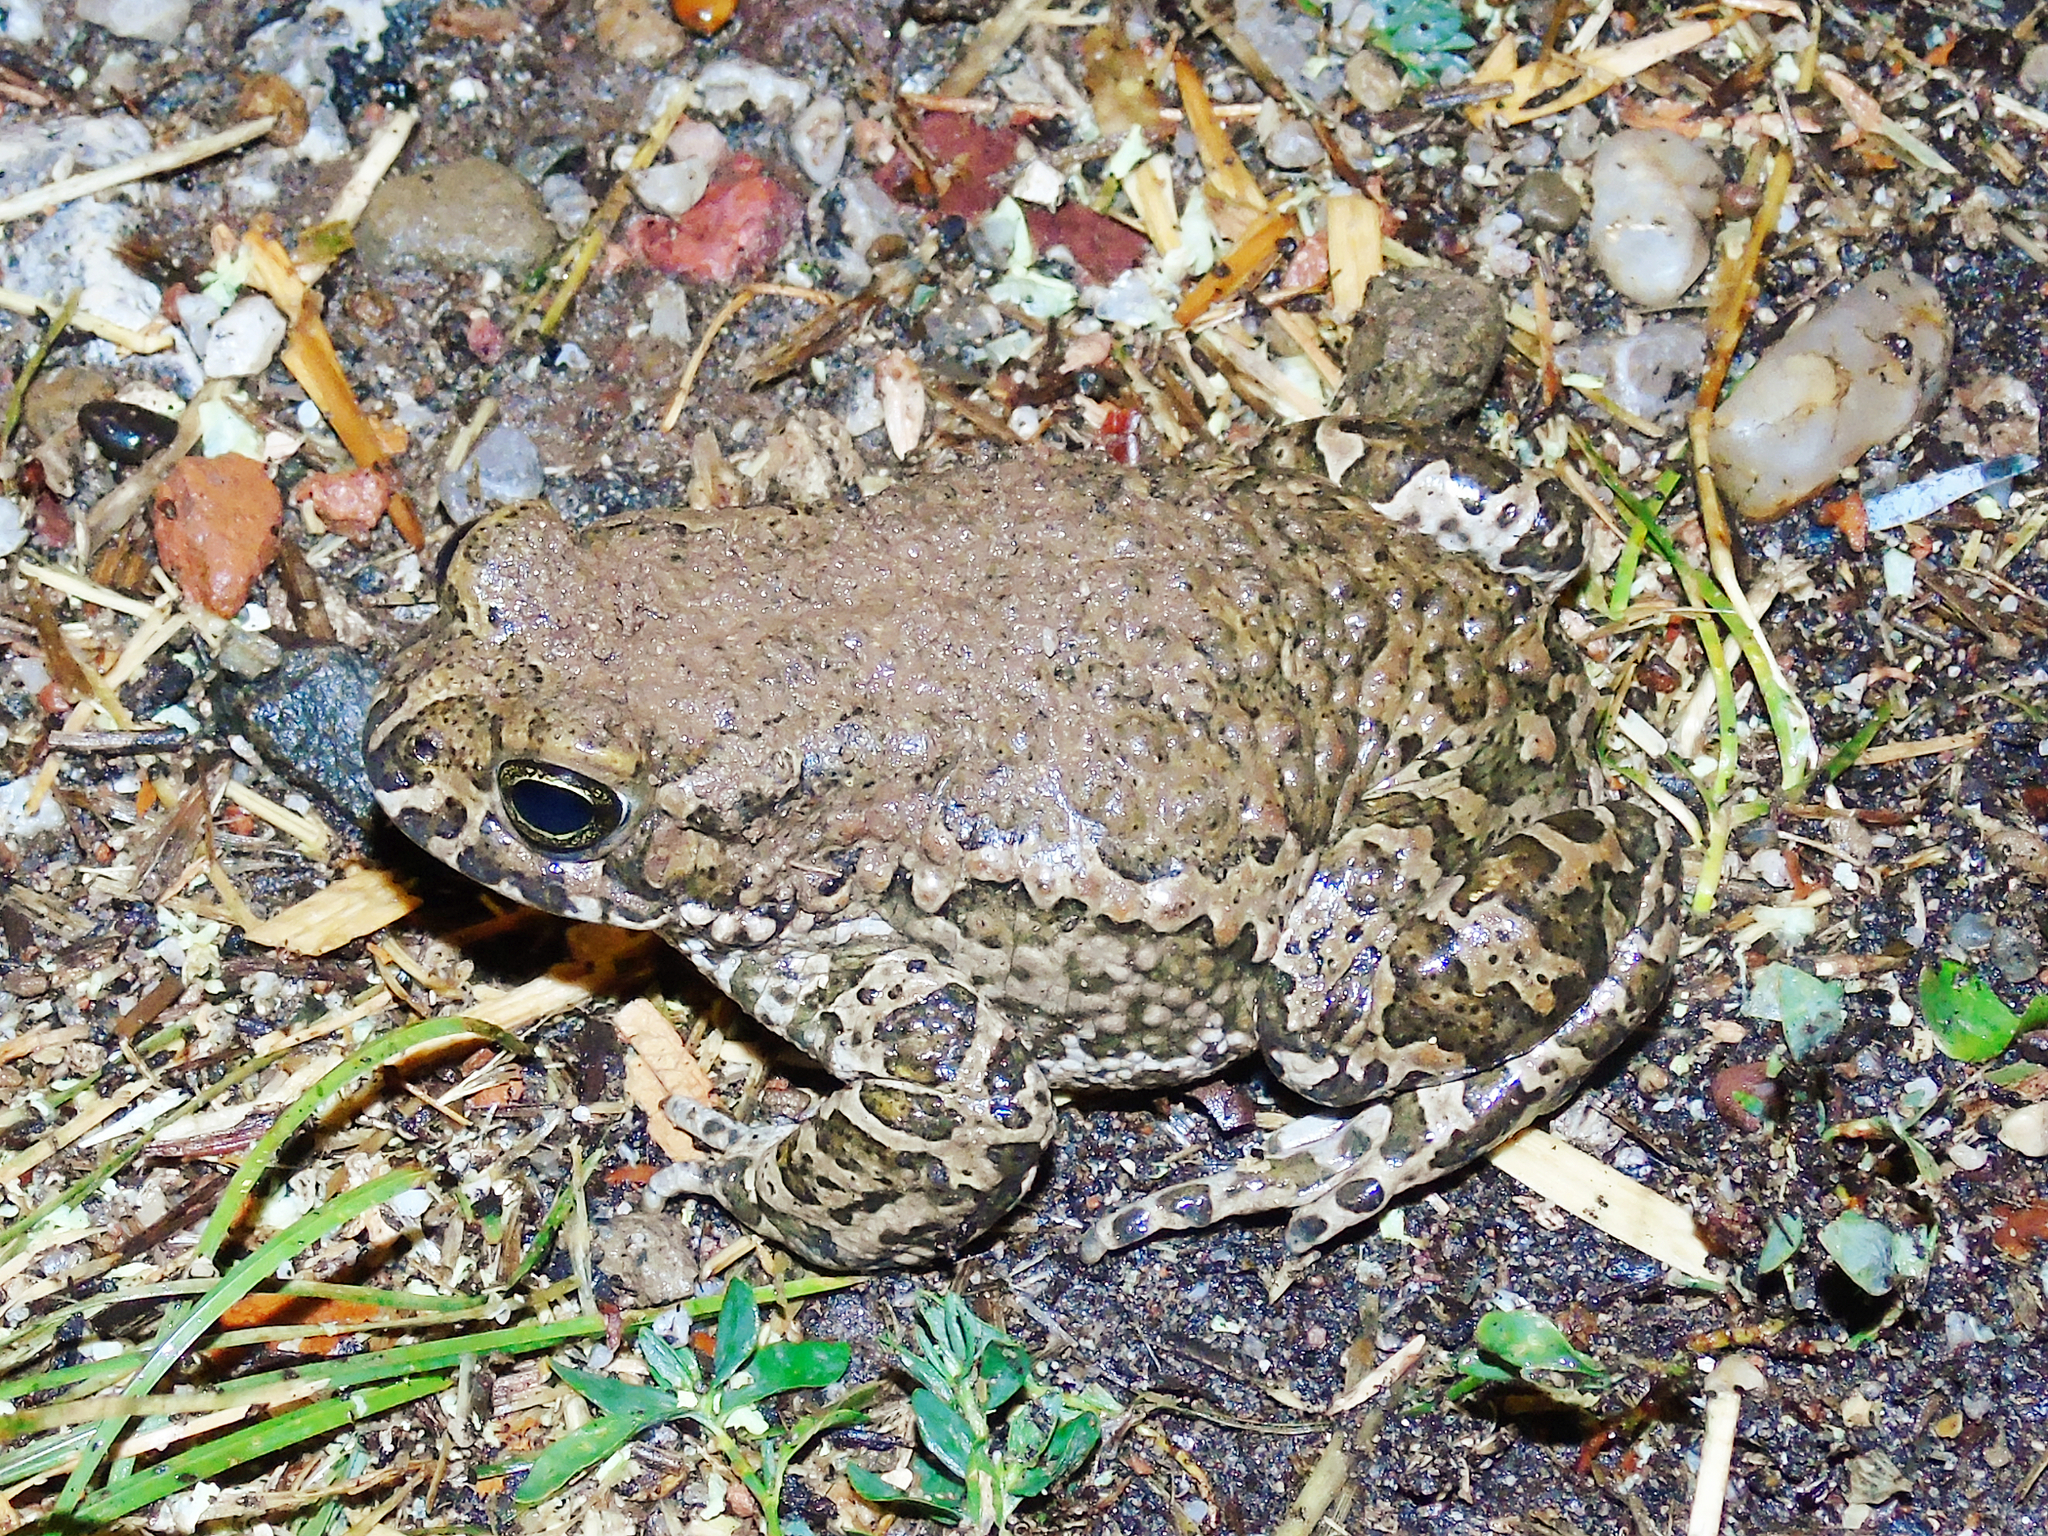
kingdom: Animalia
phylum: Chordata
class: Amphibia
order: Anura
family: Bufonidae
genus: Bufotes
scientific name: Bufotes viridis
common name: European green toad
